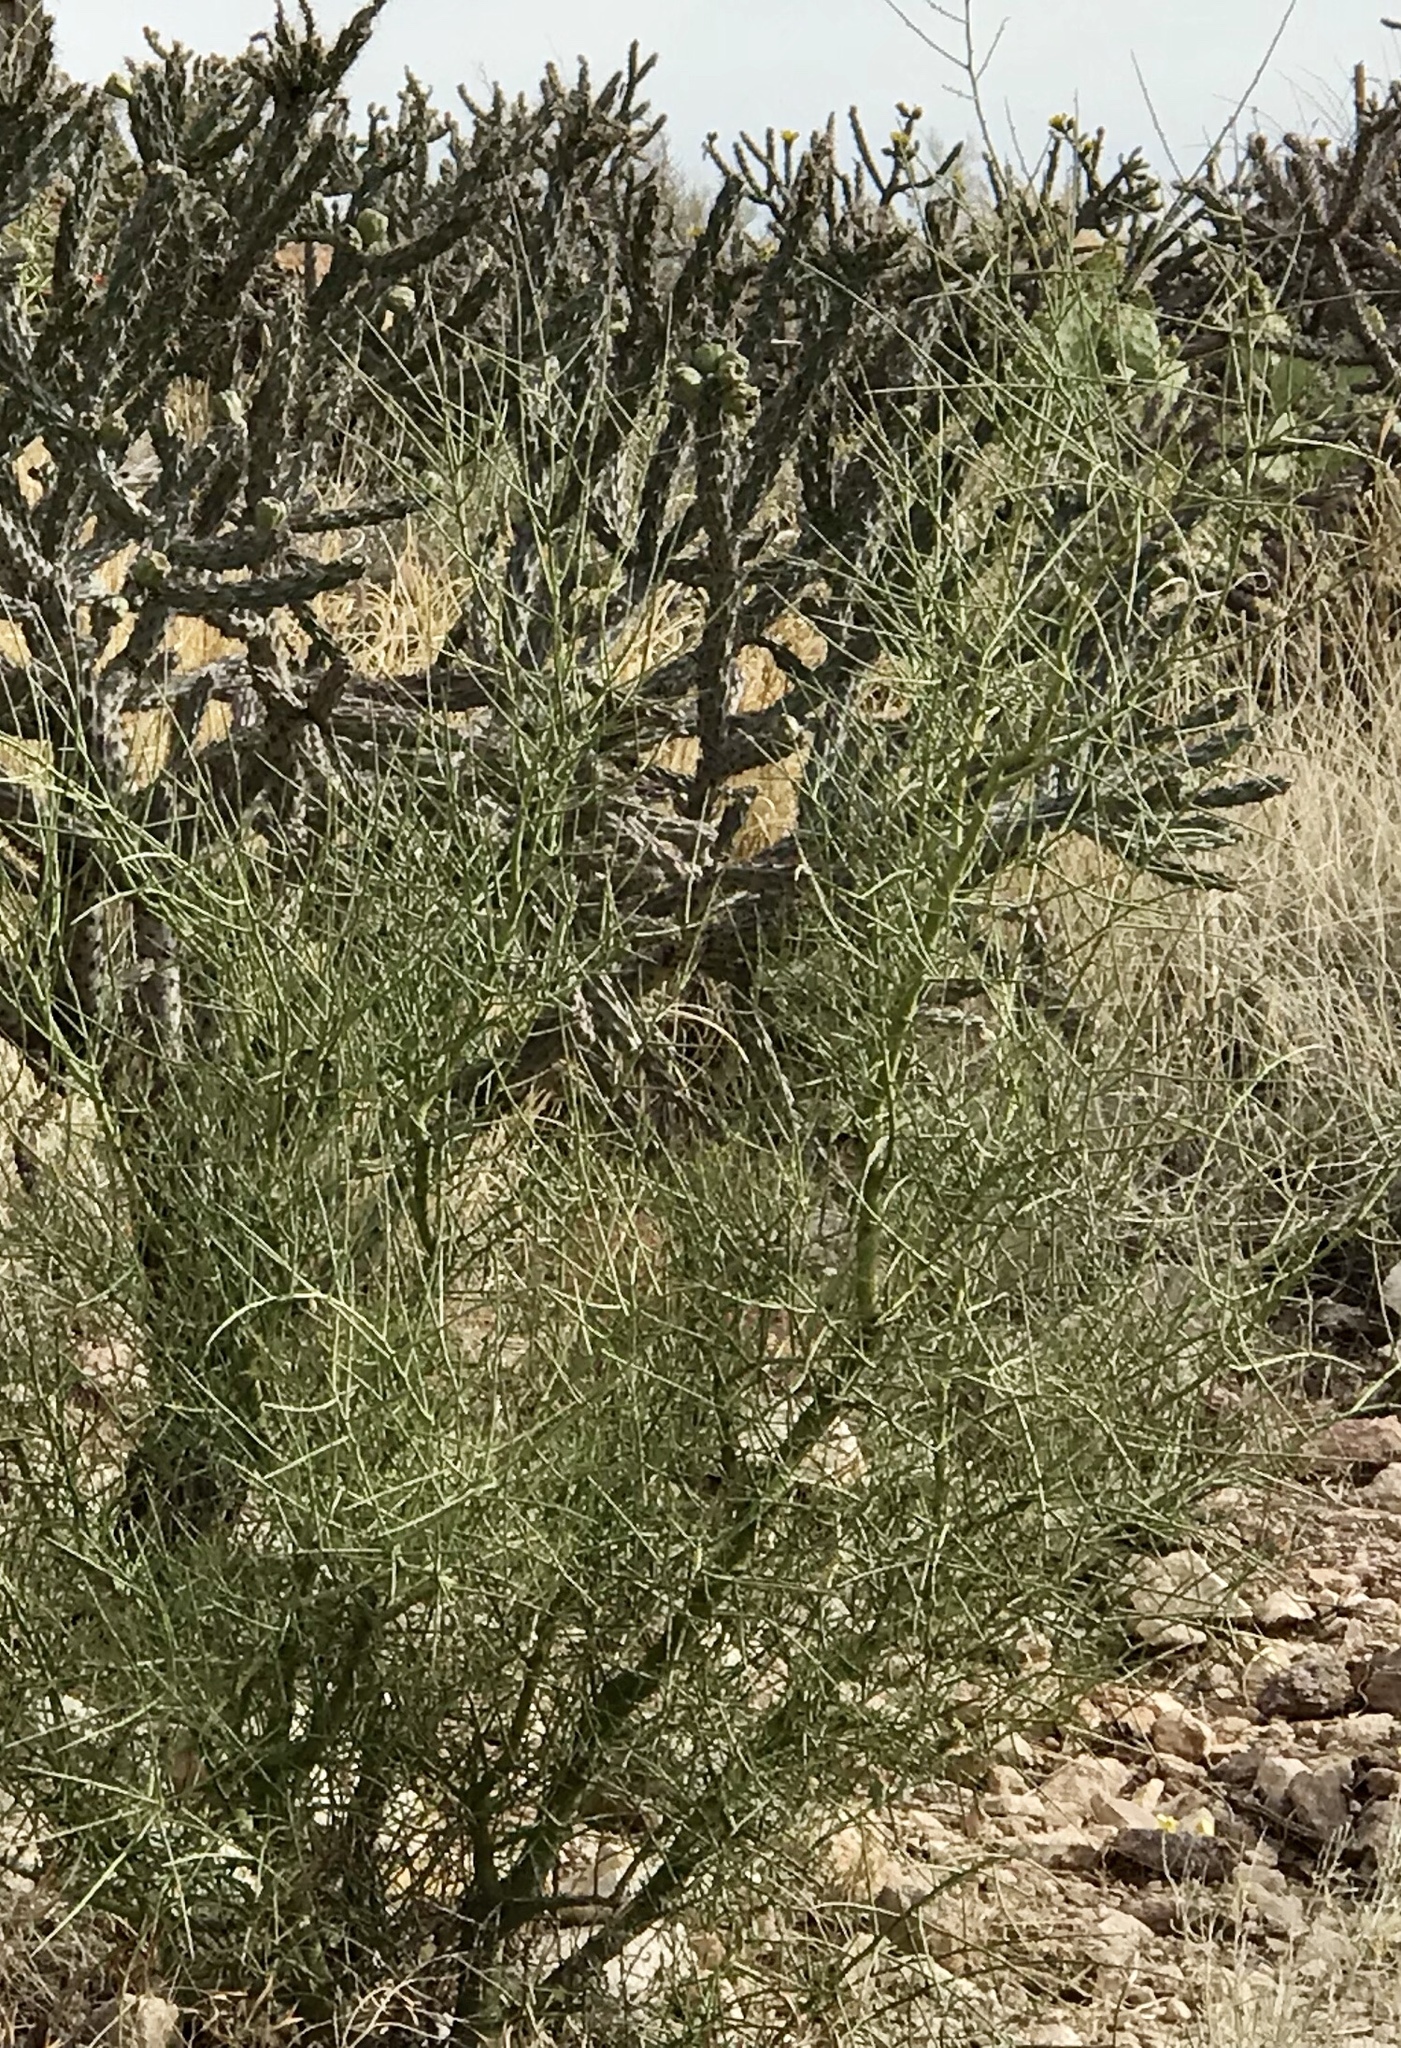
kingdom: Plantae
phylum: Tracheophyta
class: Magnoliopsida
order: Fabales
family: Fabaceae
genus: Parkinsonia
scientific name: Parkinsonia microphylla
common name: Yellow paloverde
